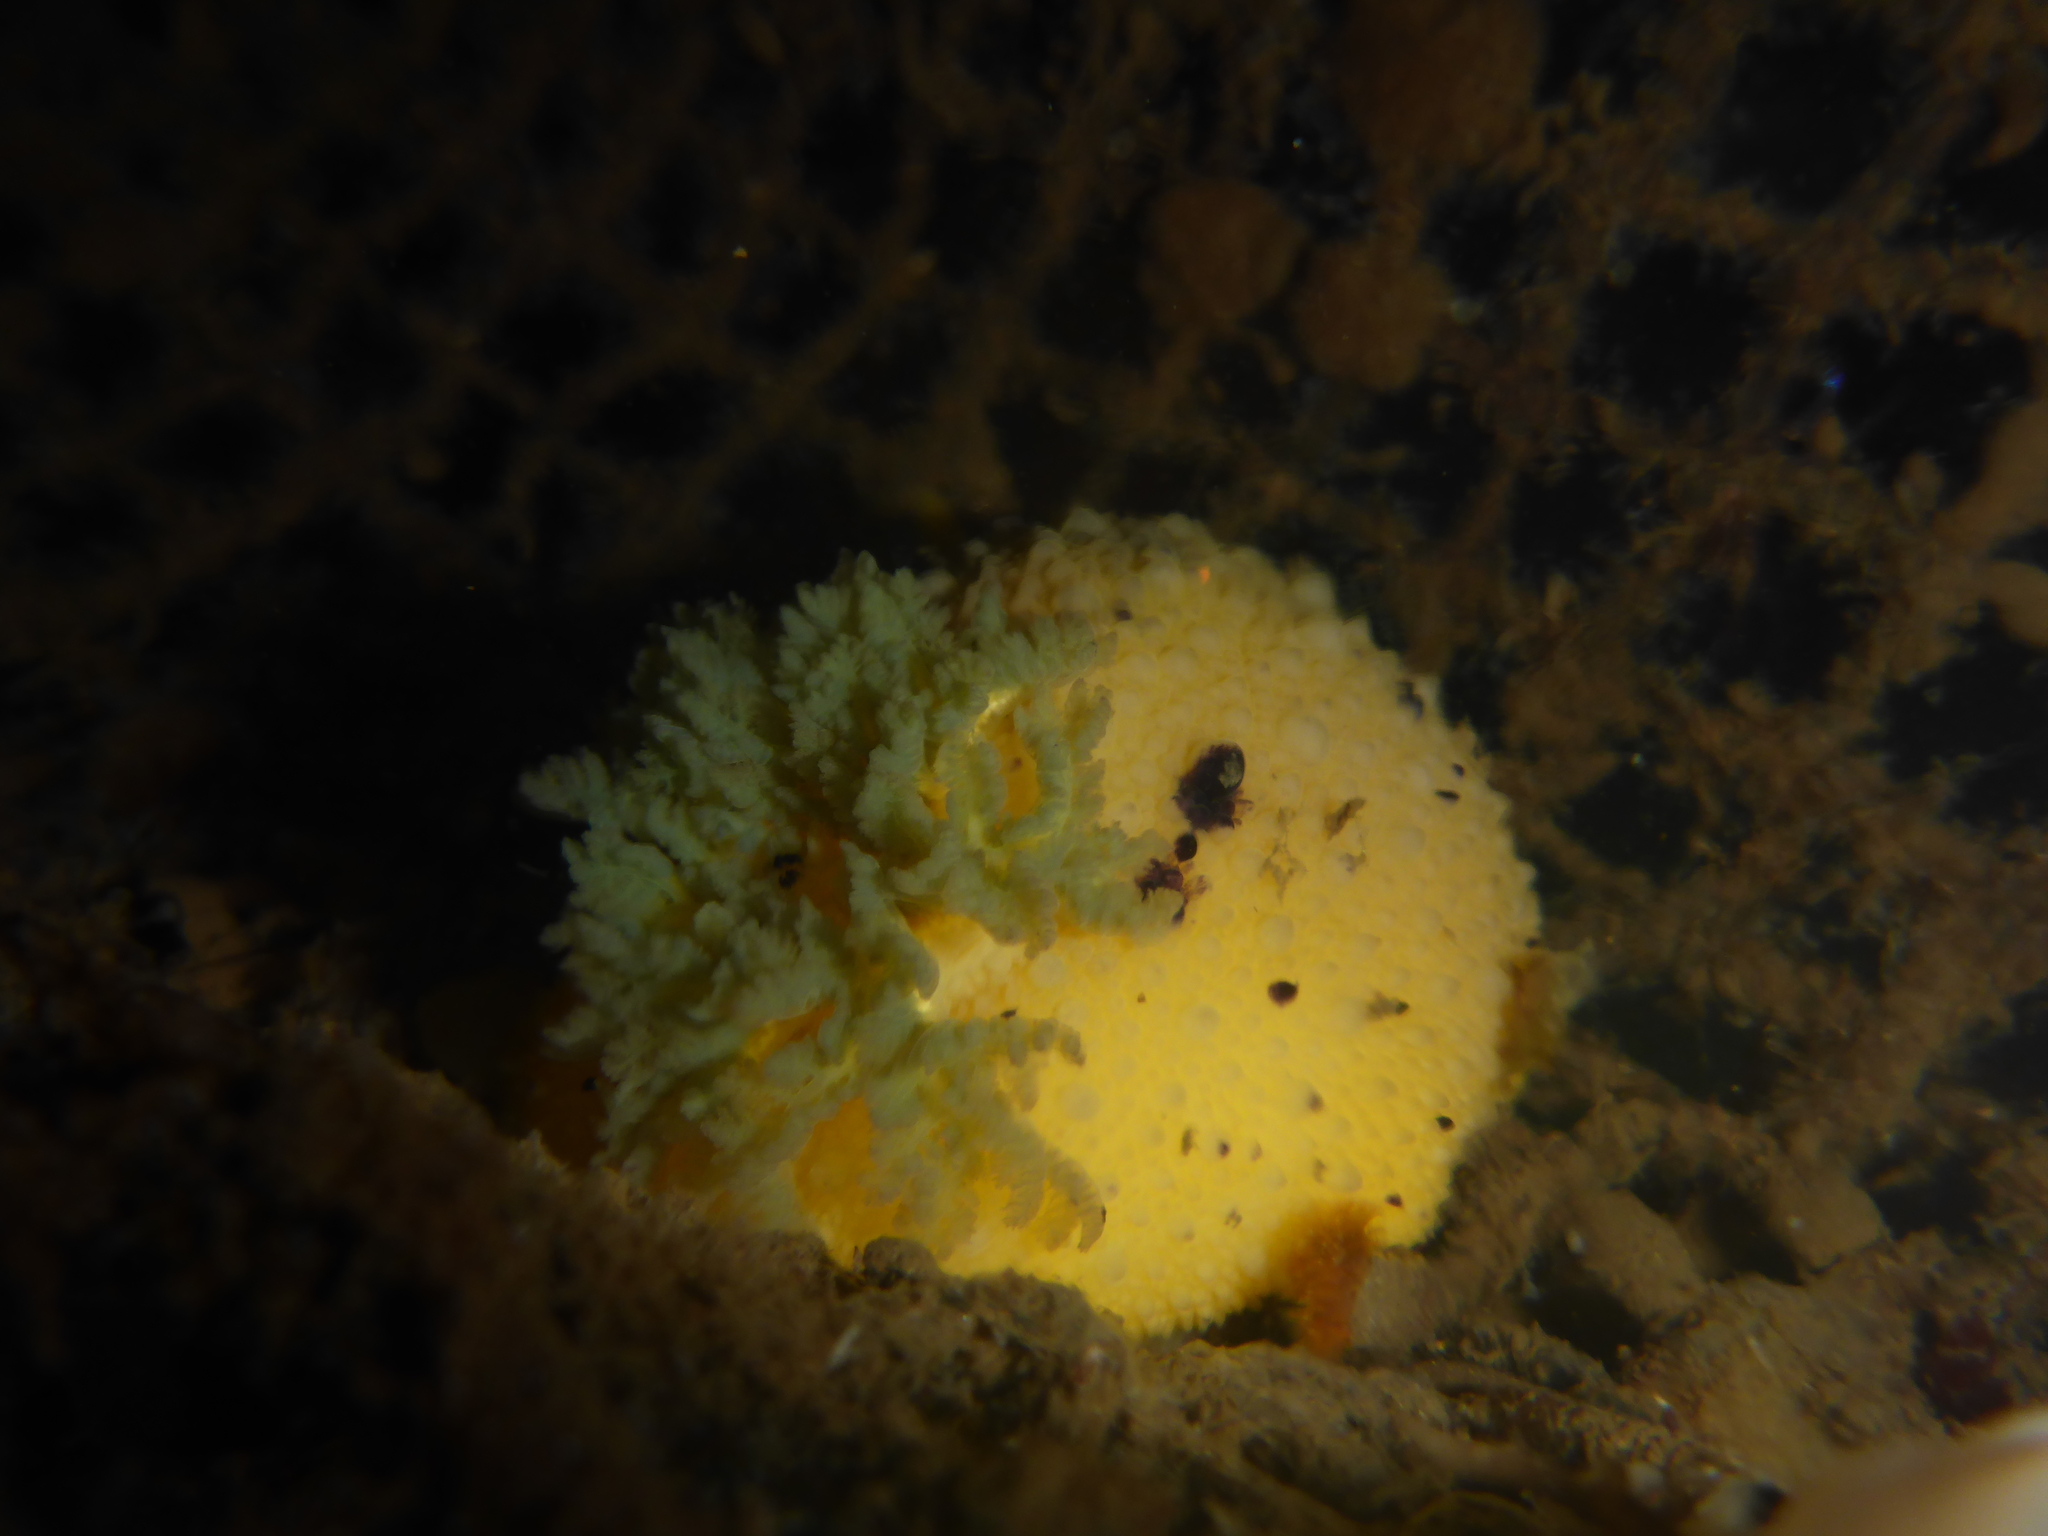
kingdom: Animalia
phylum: Mollusca
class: Gastropoda
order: Nudibranchia
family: Dorididae
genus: Doris
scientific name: Doris montereyensis
